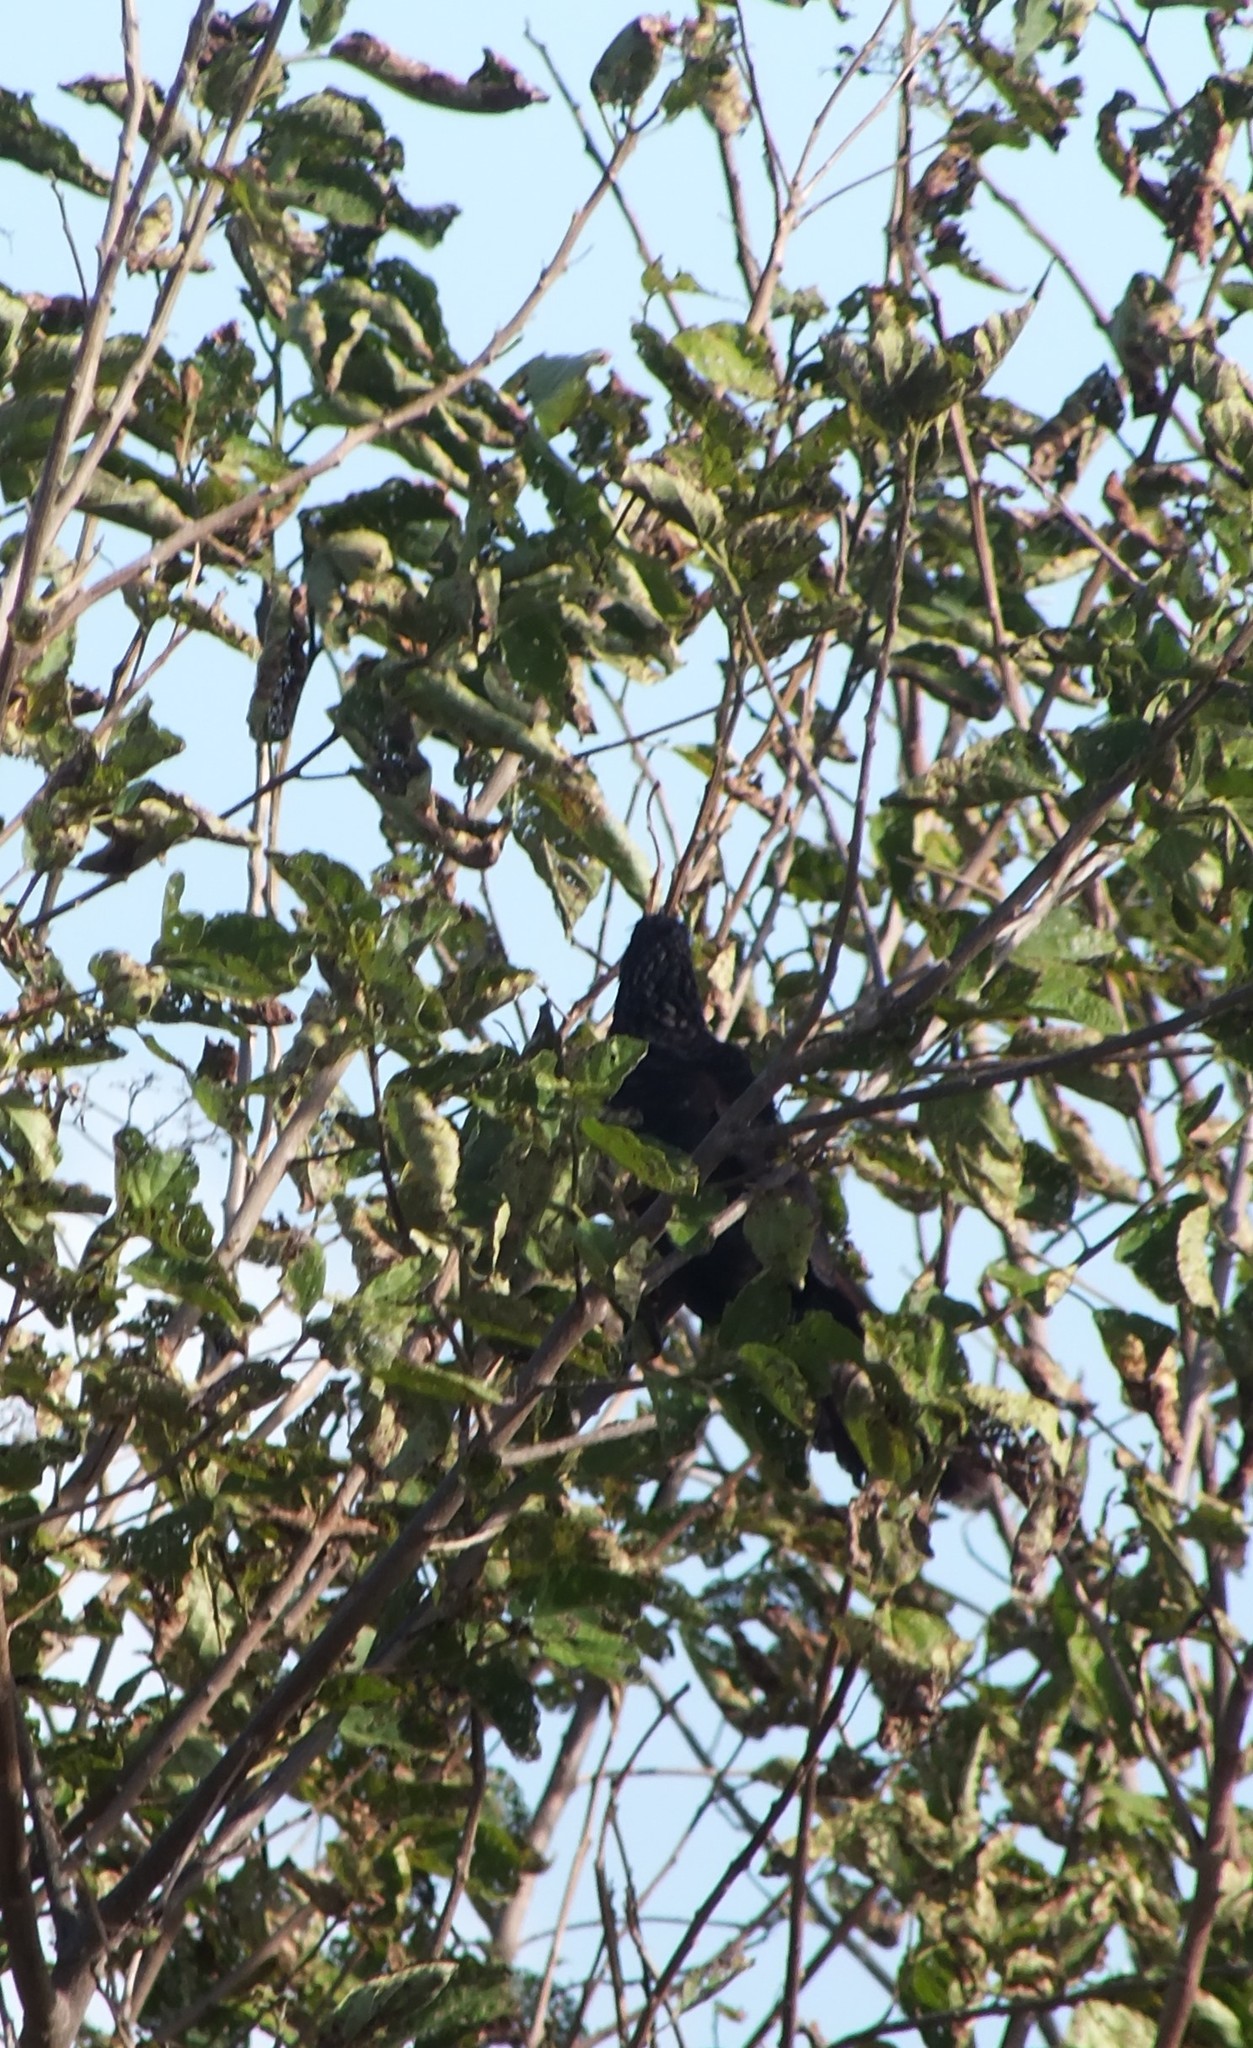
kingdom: Animalia
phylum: Chordata
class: Aves
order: Cuculiformes
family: Cuculidae
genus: Crotophaga
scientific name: Crotophaga ani
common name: Smooth-billed ani
